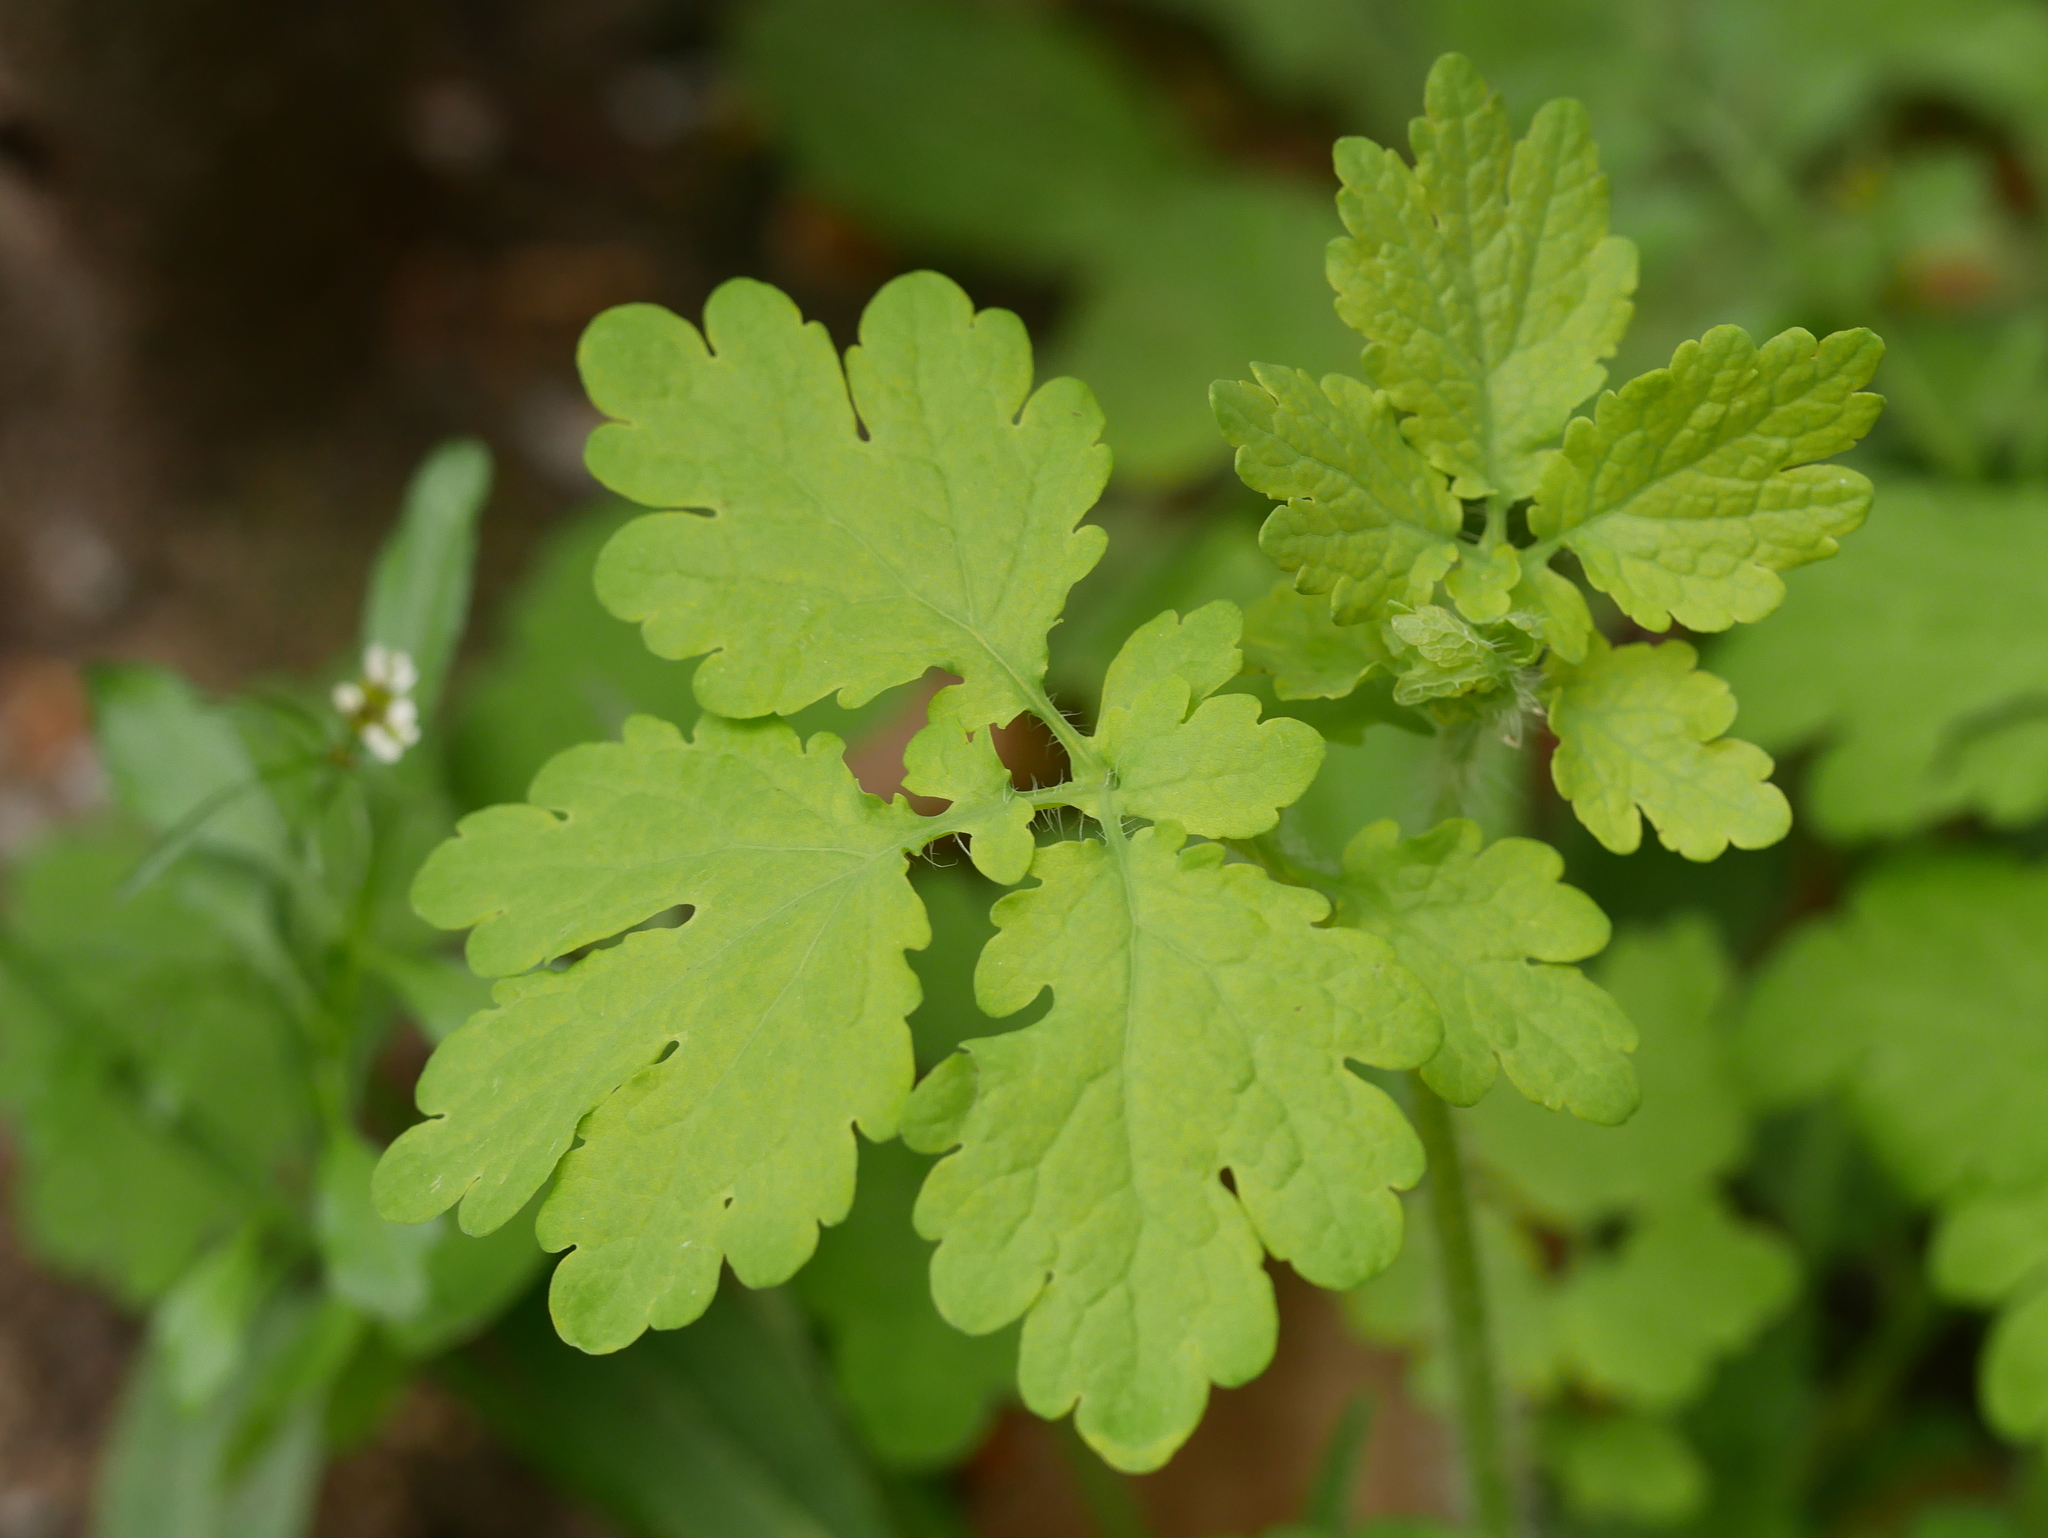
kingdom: Plantae
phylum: Tracheophyta
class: Magnoliopsida
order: Ranunculales
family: Papaveraceae
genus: Chelidonium
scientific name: Chelidonium majus
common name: Greater celandine
